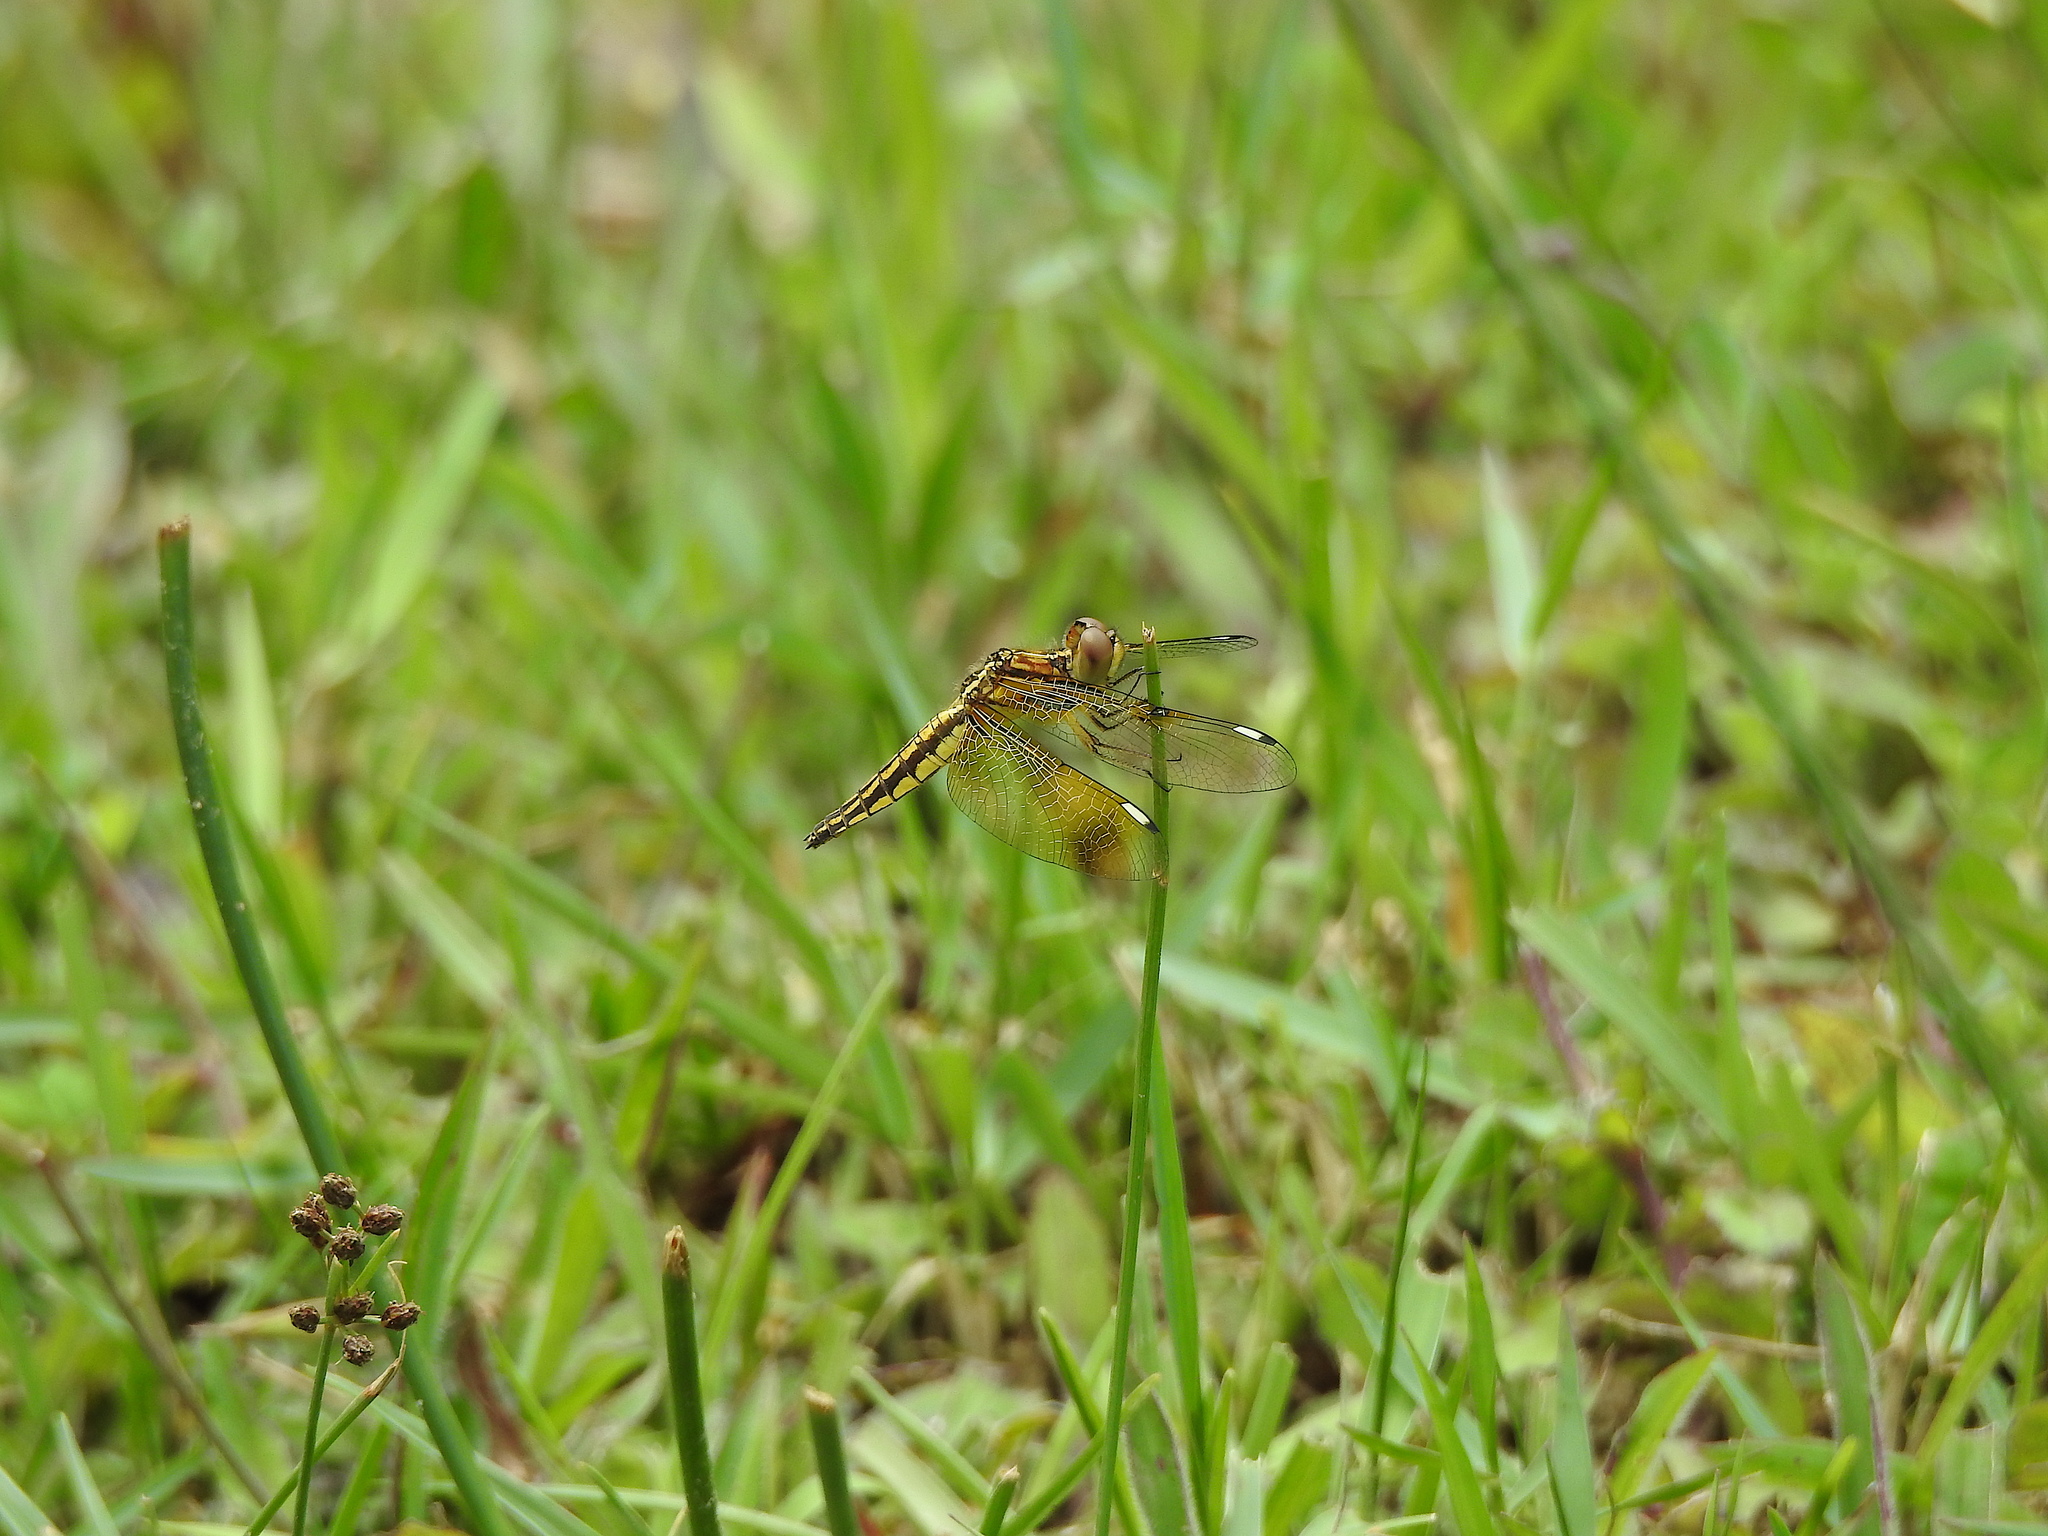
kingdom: Animalia
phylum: Arthropoda
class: Insecta
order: Odonata
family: Libellulidae
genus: Palpopleura
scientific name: Palpopleura sexmaculata
